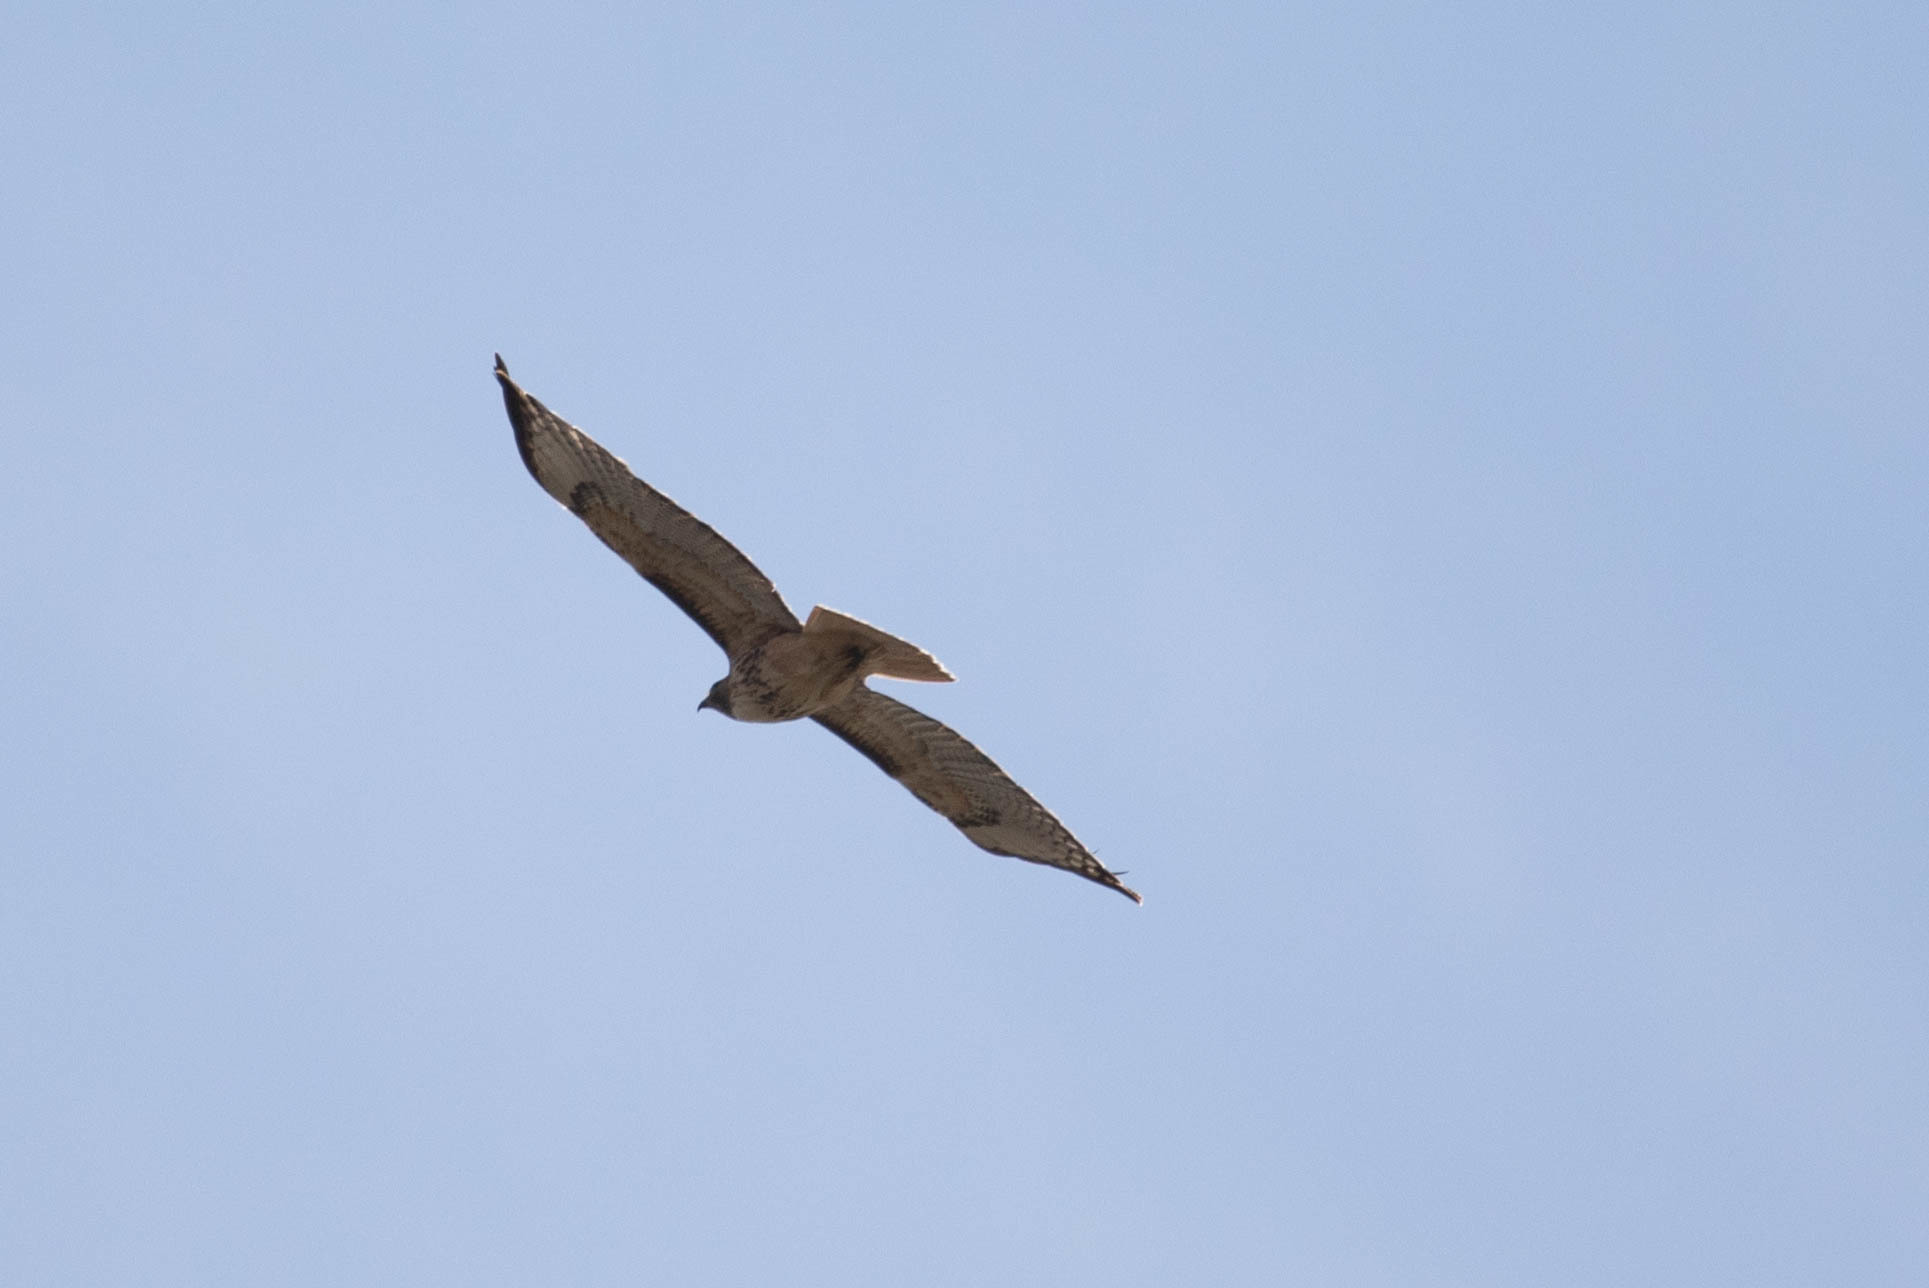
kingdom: Animalia
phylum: Chordata
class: Aves
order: Accipitriformes
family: Accipitridae
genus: Buteo
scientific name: Buteo jamaicensis
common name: Red-tailed hawk
